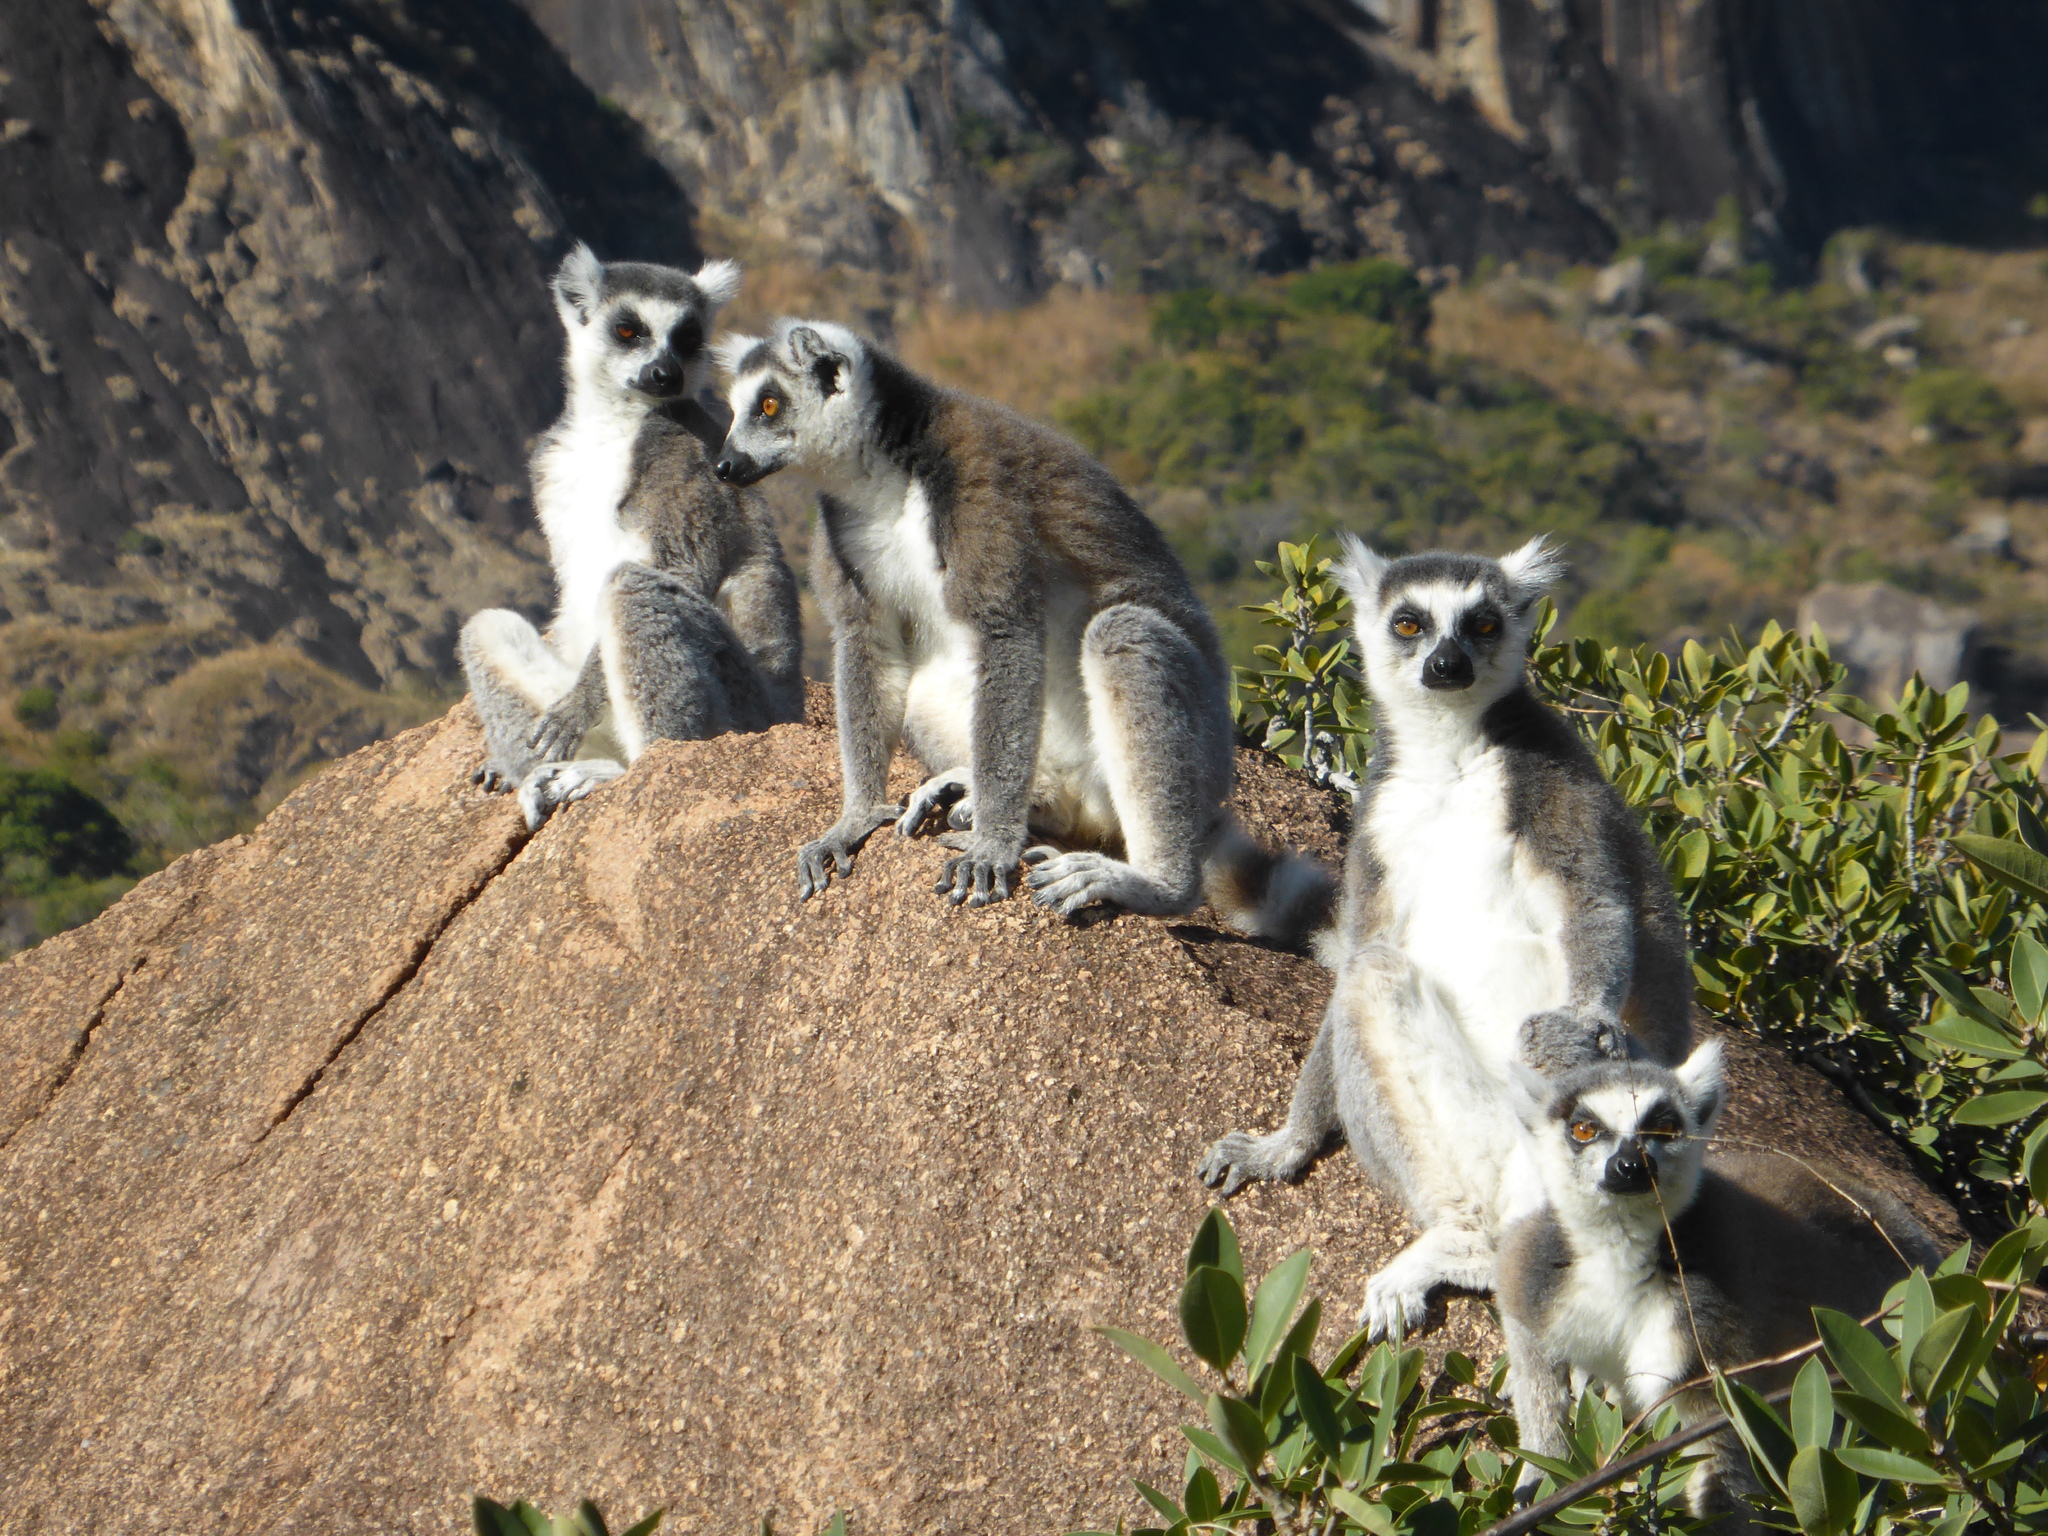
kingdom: Animalia
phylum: Chordata
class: Mammalia
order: Primates
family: Lemuridae
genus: Lemur
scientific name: Lemur catta
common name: Ring-tailed lemur
